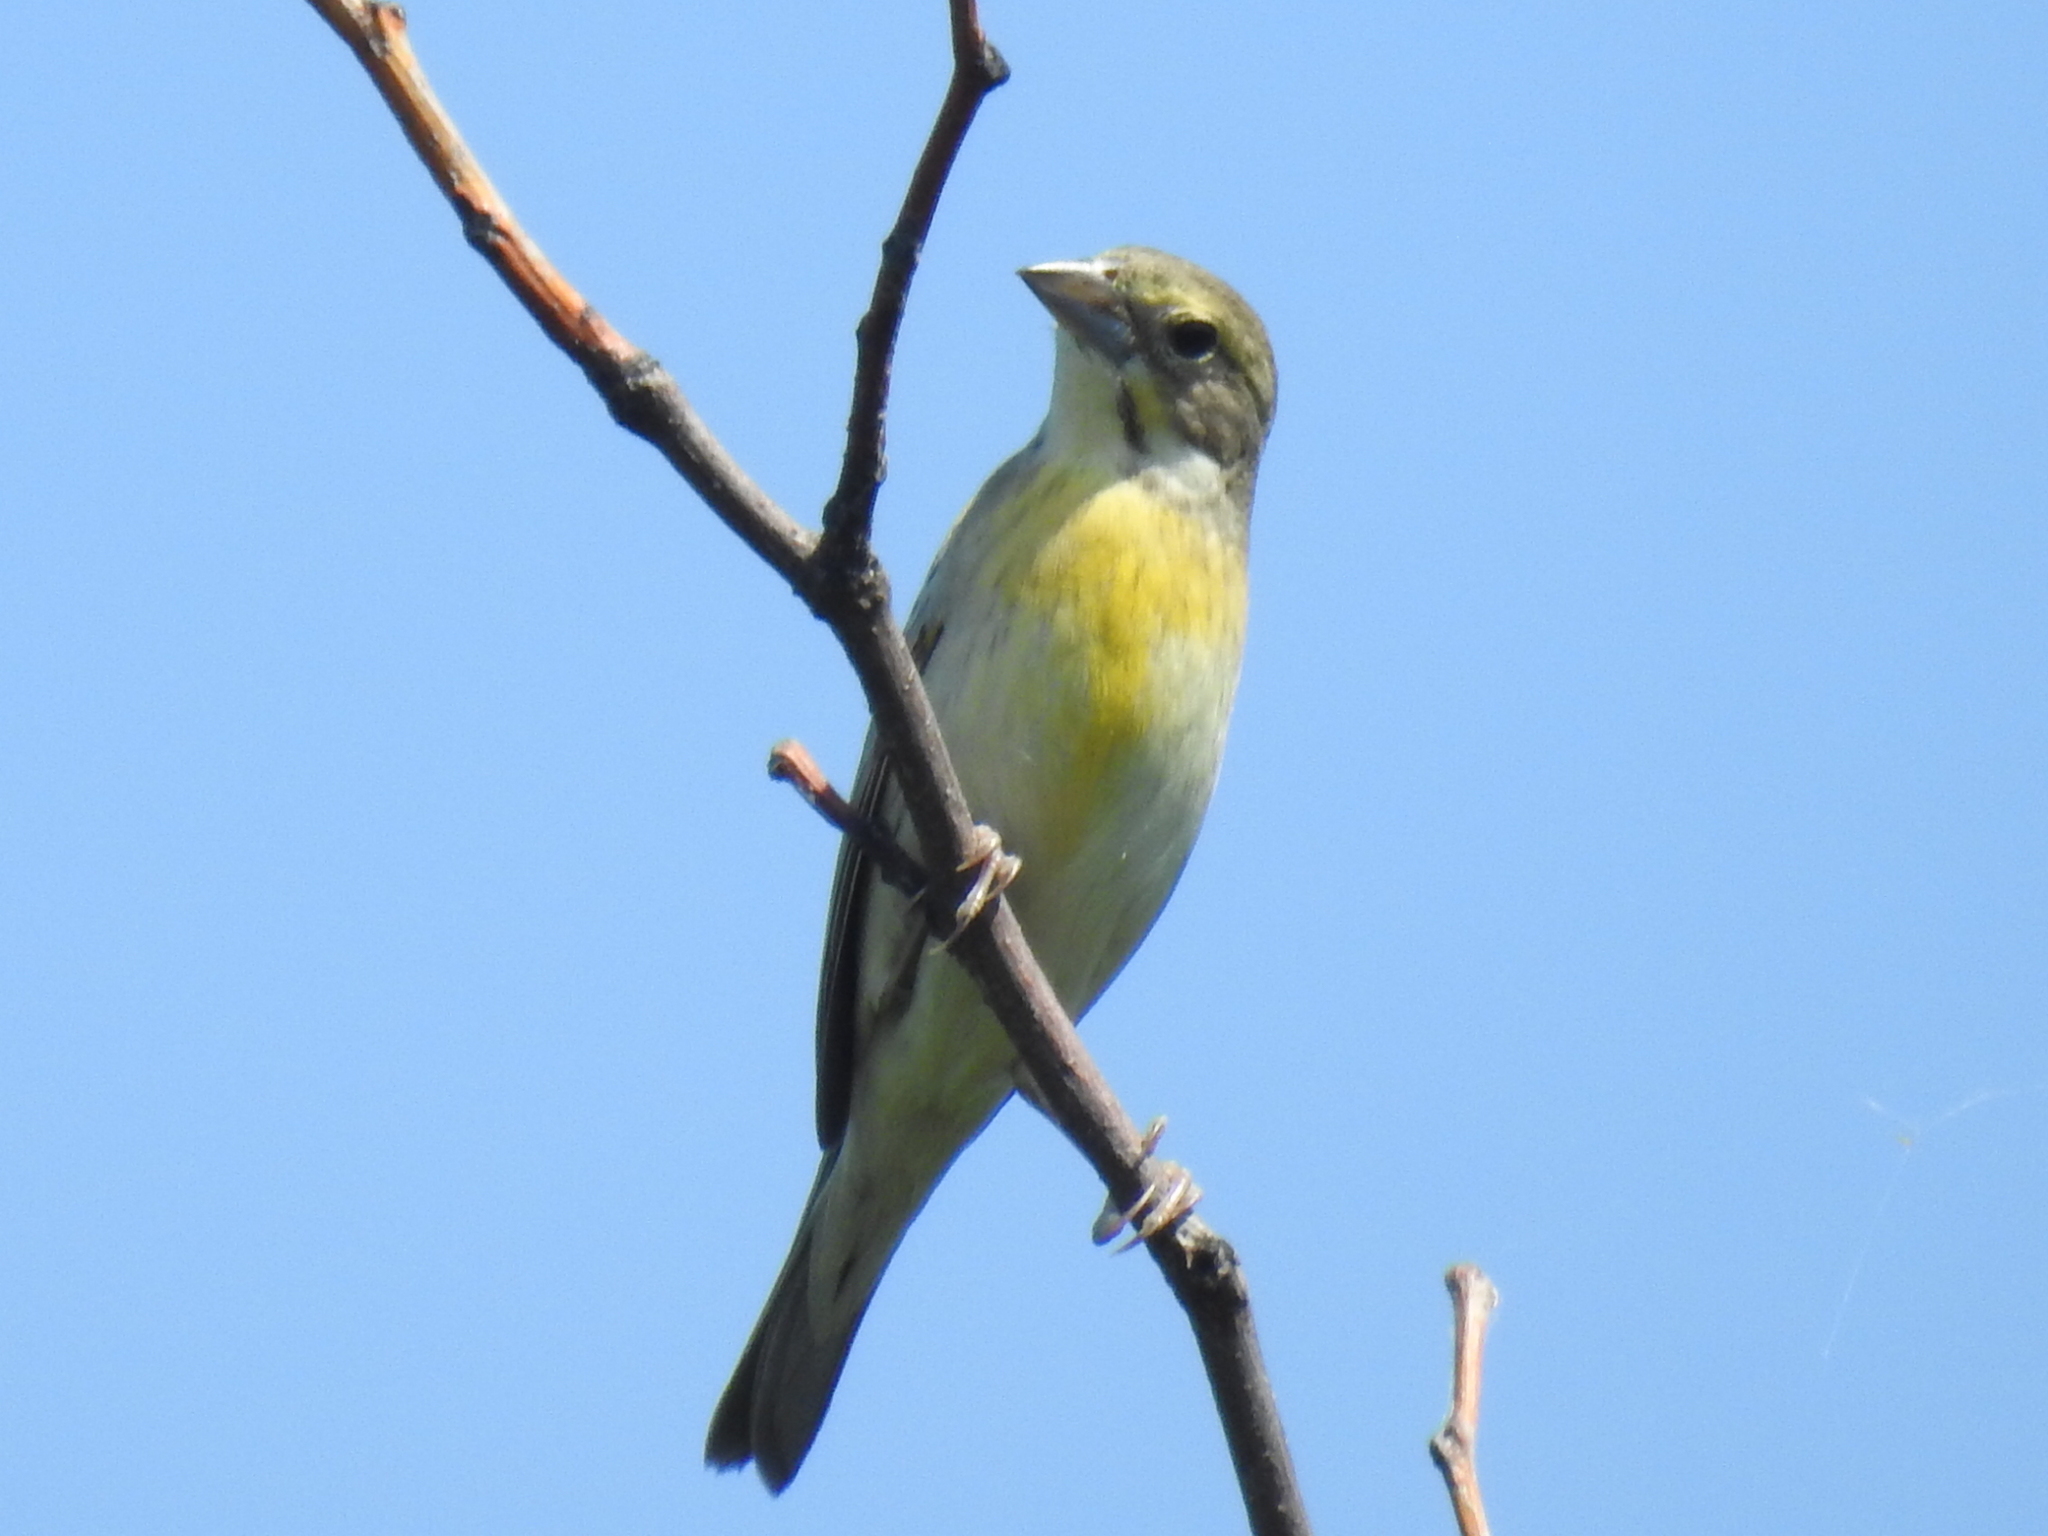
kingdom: Animalia
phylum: Chordata
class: Aves
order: Passeriformes
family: Cardinalidae
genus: Spiza
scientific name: Spiza americana
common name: Dickcissel
